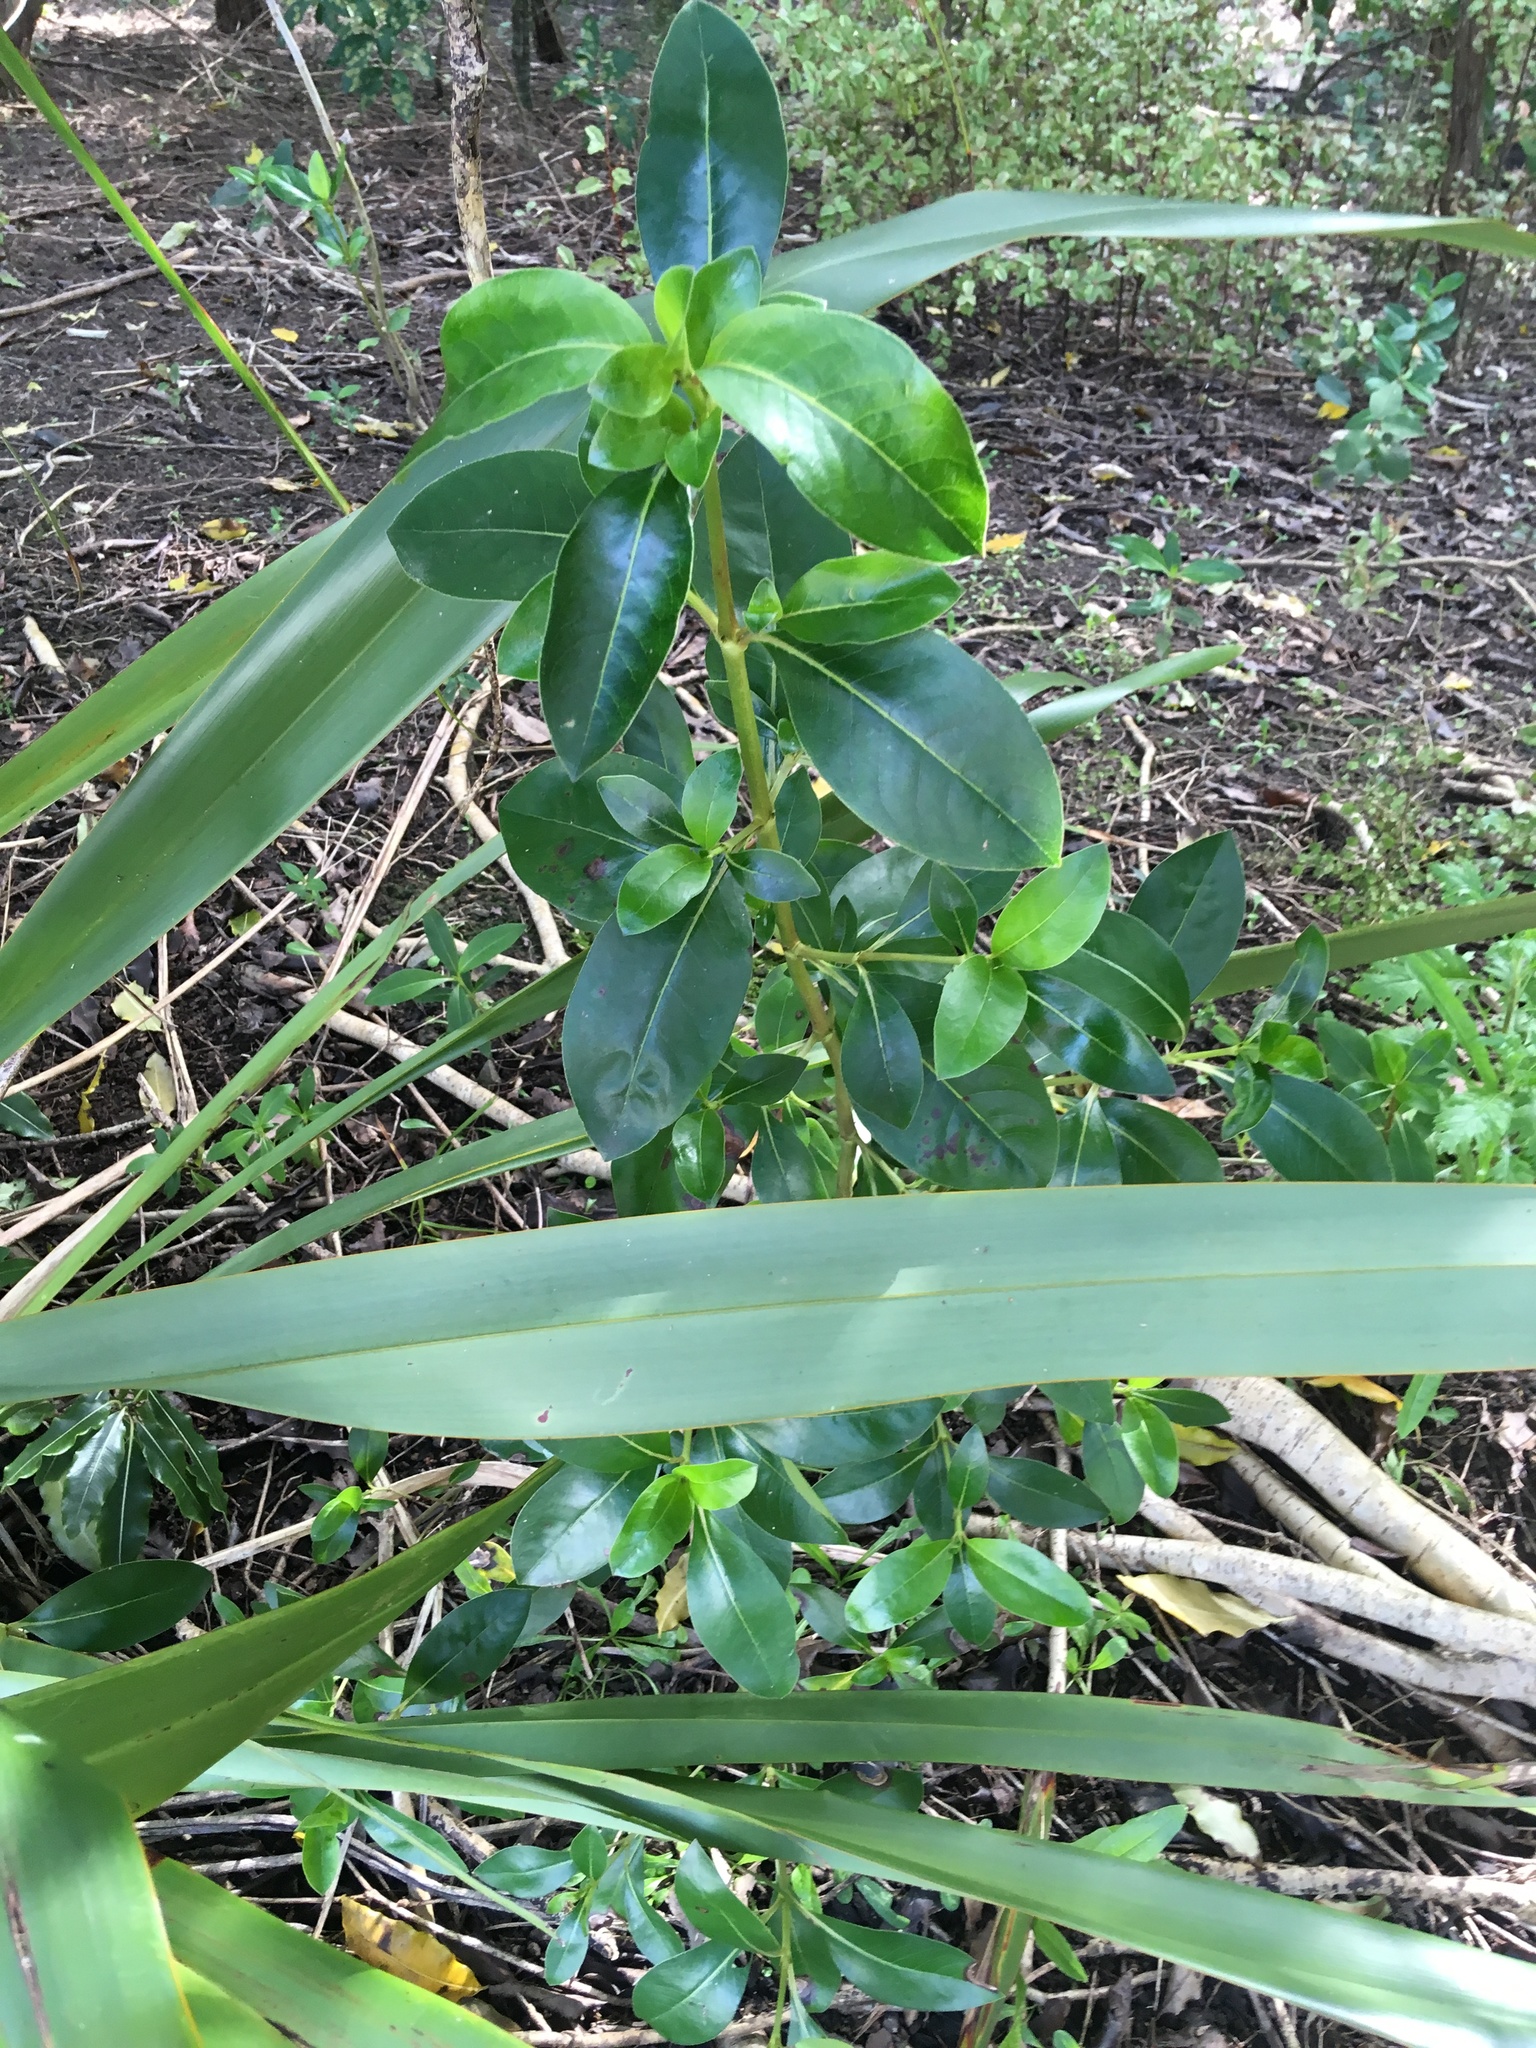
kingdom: Plantae
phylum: Tracheophyta
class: Magnoliopsida
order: Gentianales
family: Rubiaceae
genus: Coprosma
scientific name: Coprosma robusta
